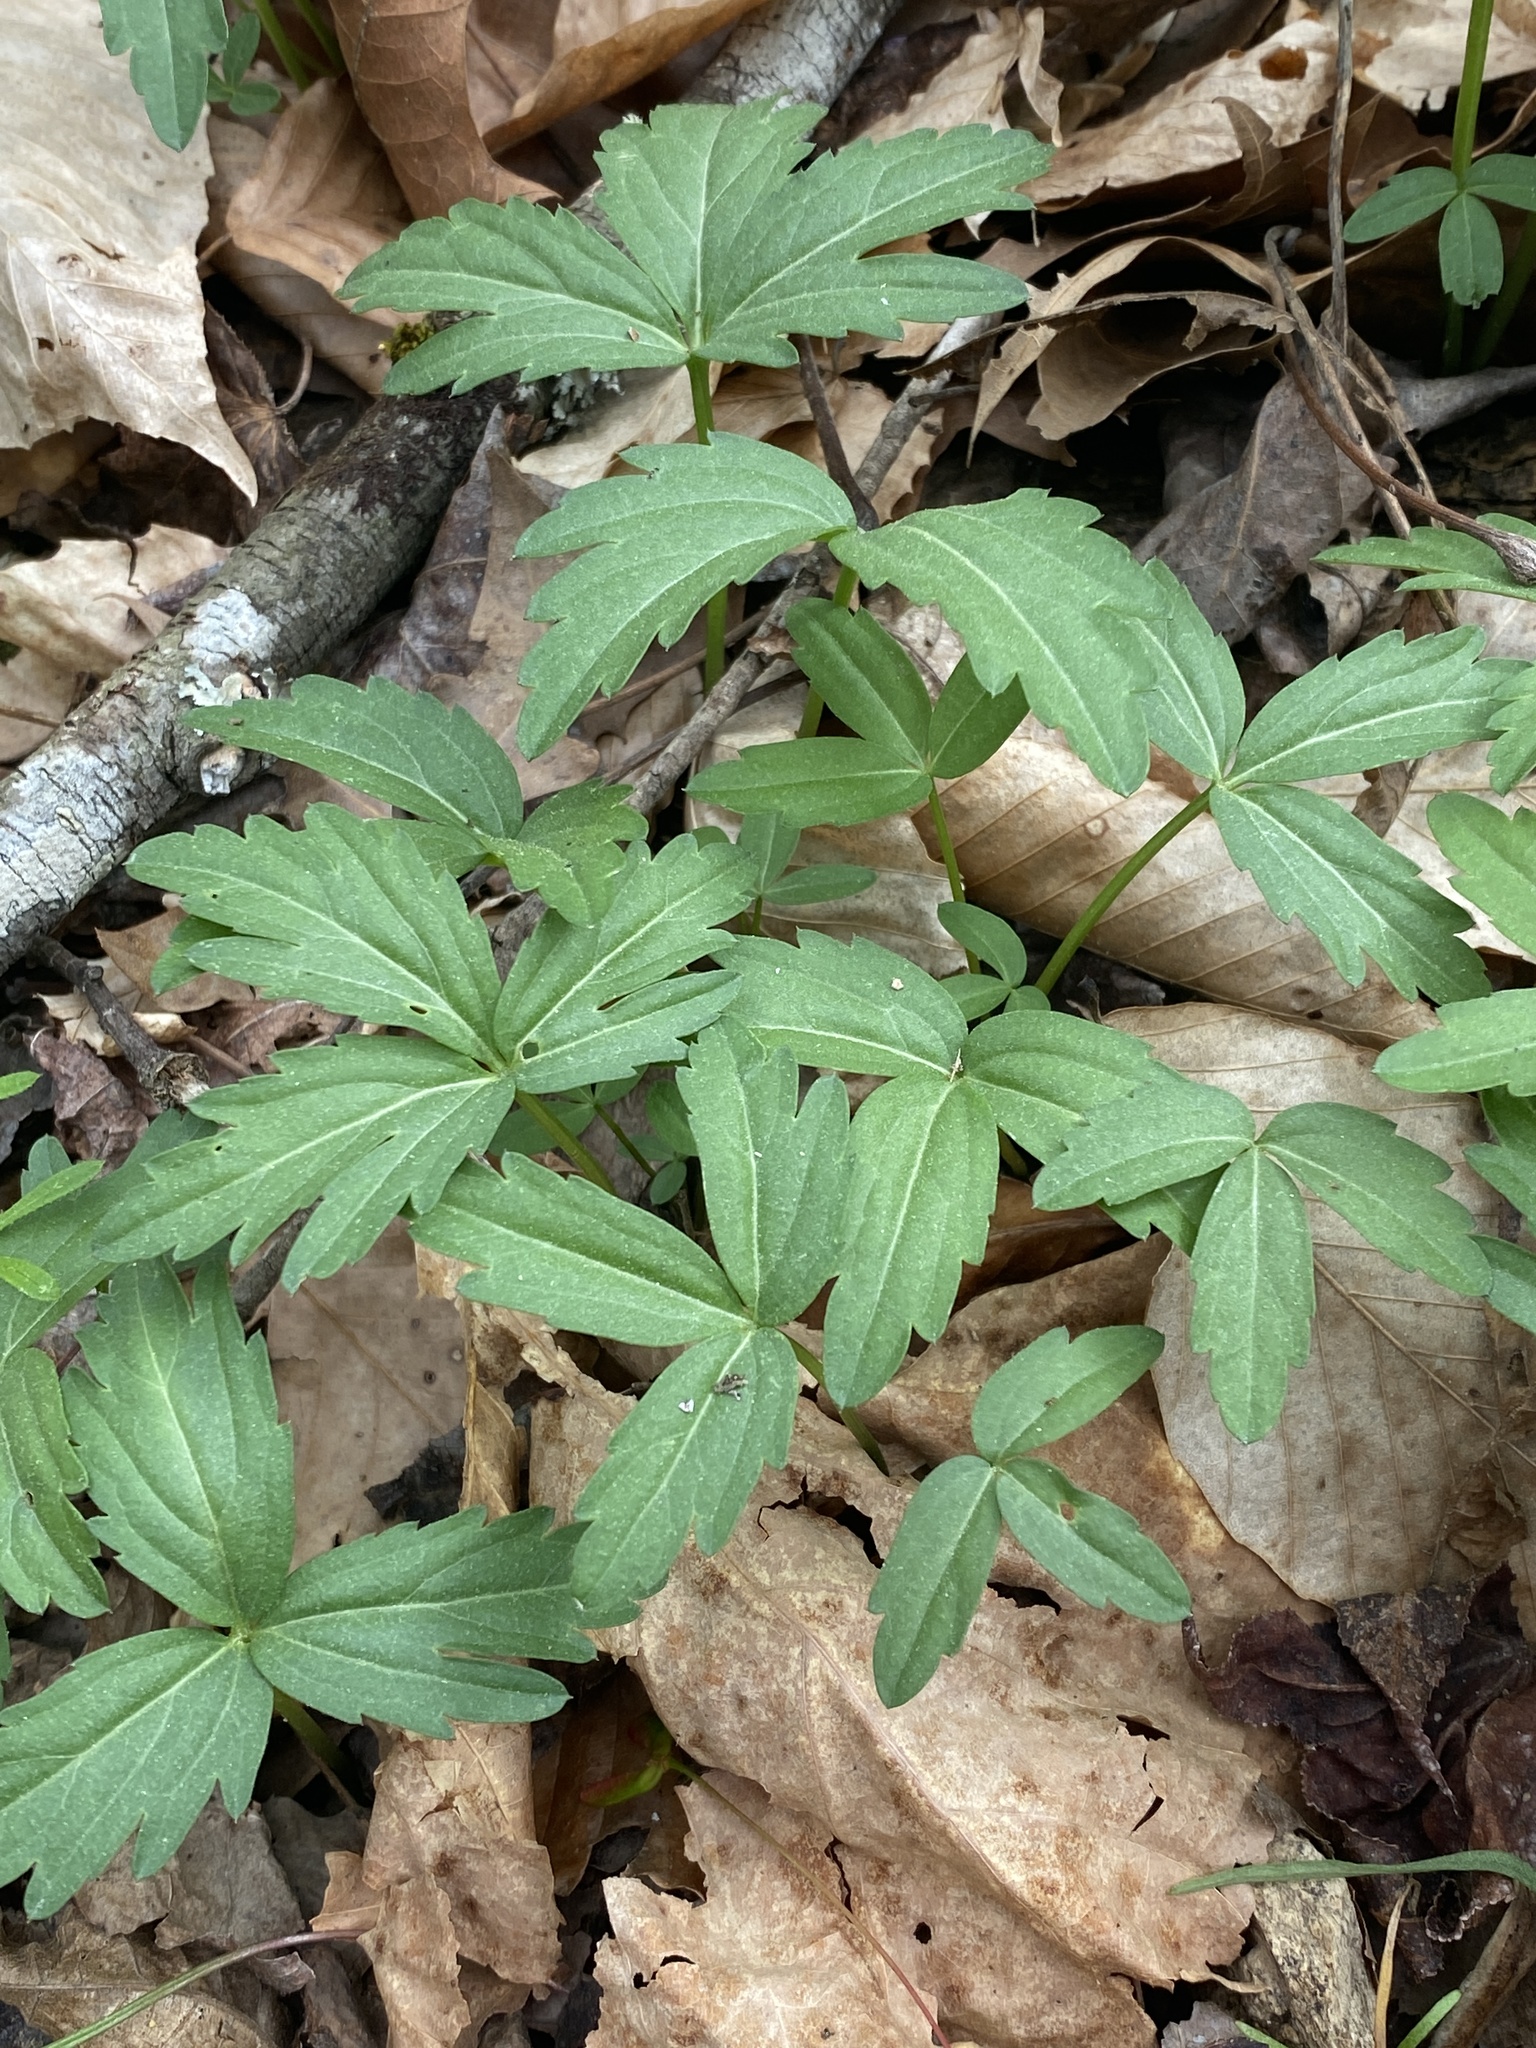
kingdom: Plantae
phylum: Tracheophyta
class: Magnoliopsida
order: Brassicales
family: Brassicaceae
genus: Cardamine
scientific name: Cardamine concatenata
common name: Cut-leaf toothcup
